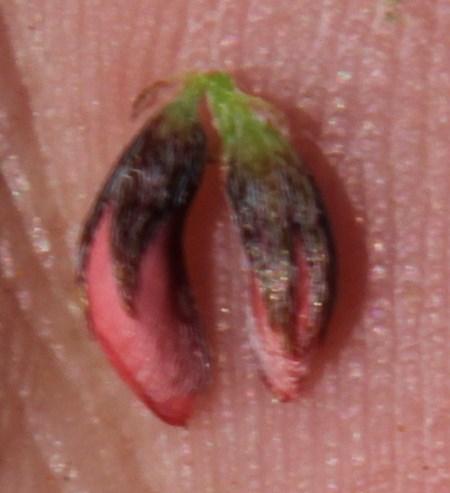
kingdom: Plantae
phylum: Tracheophyta
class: Magnoliopsida
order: Fabales
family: Fabaceae
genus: Indigofera
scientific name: Indigofera alternans
